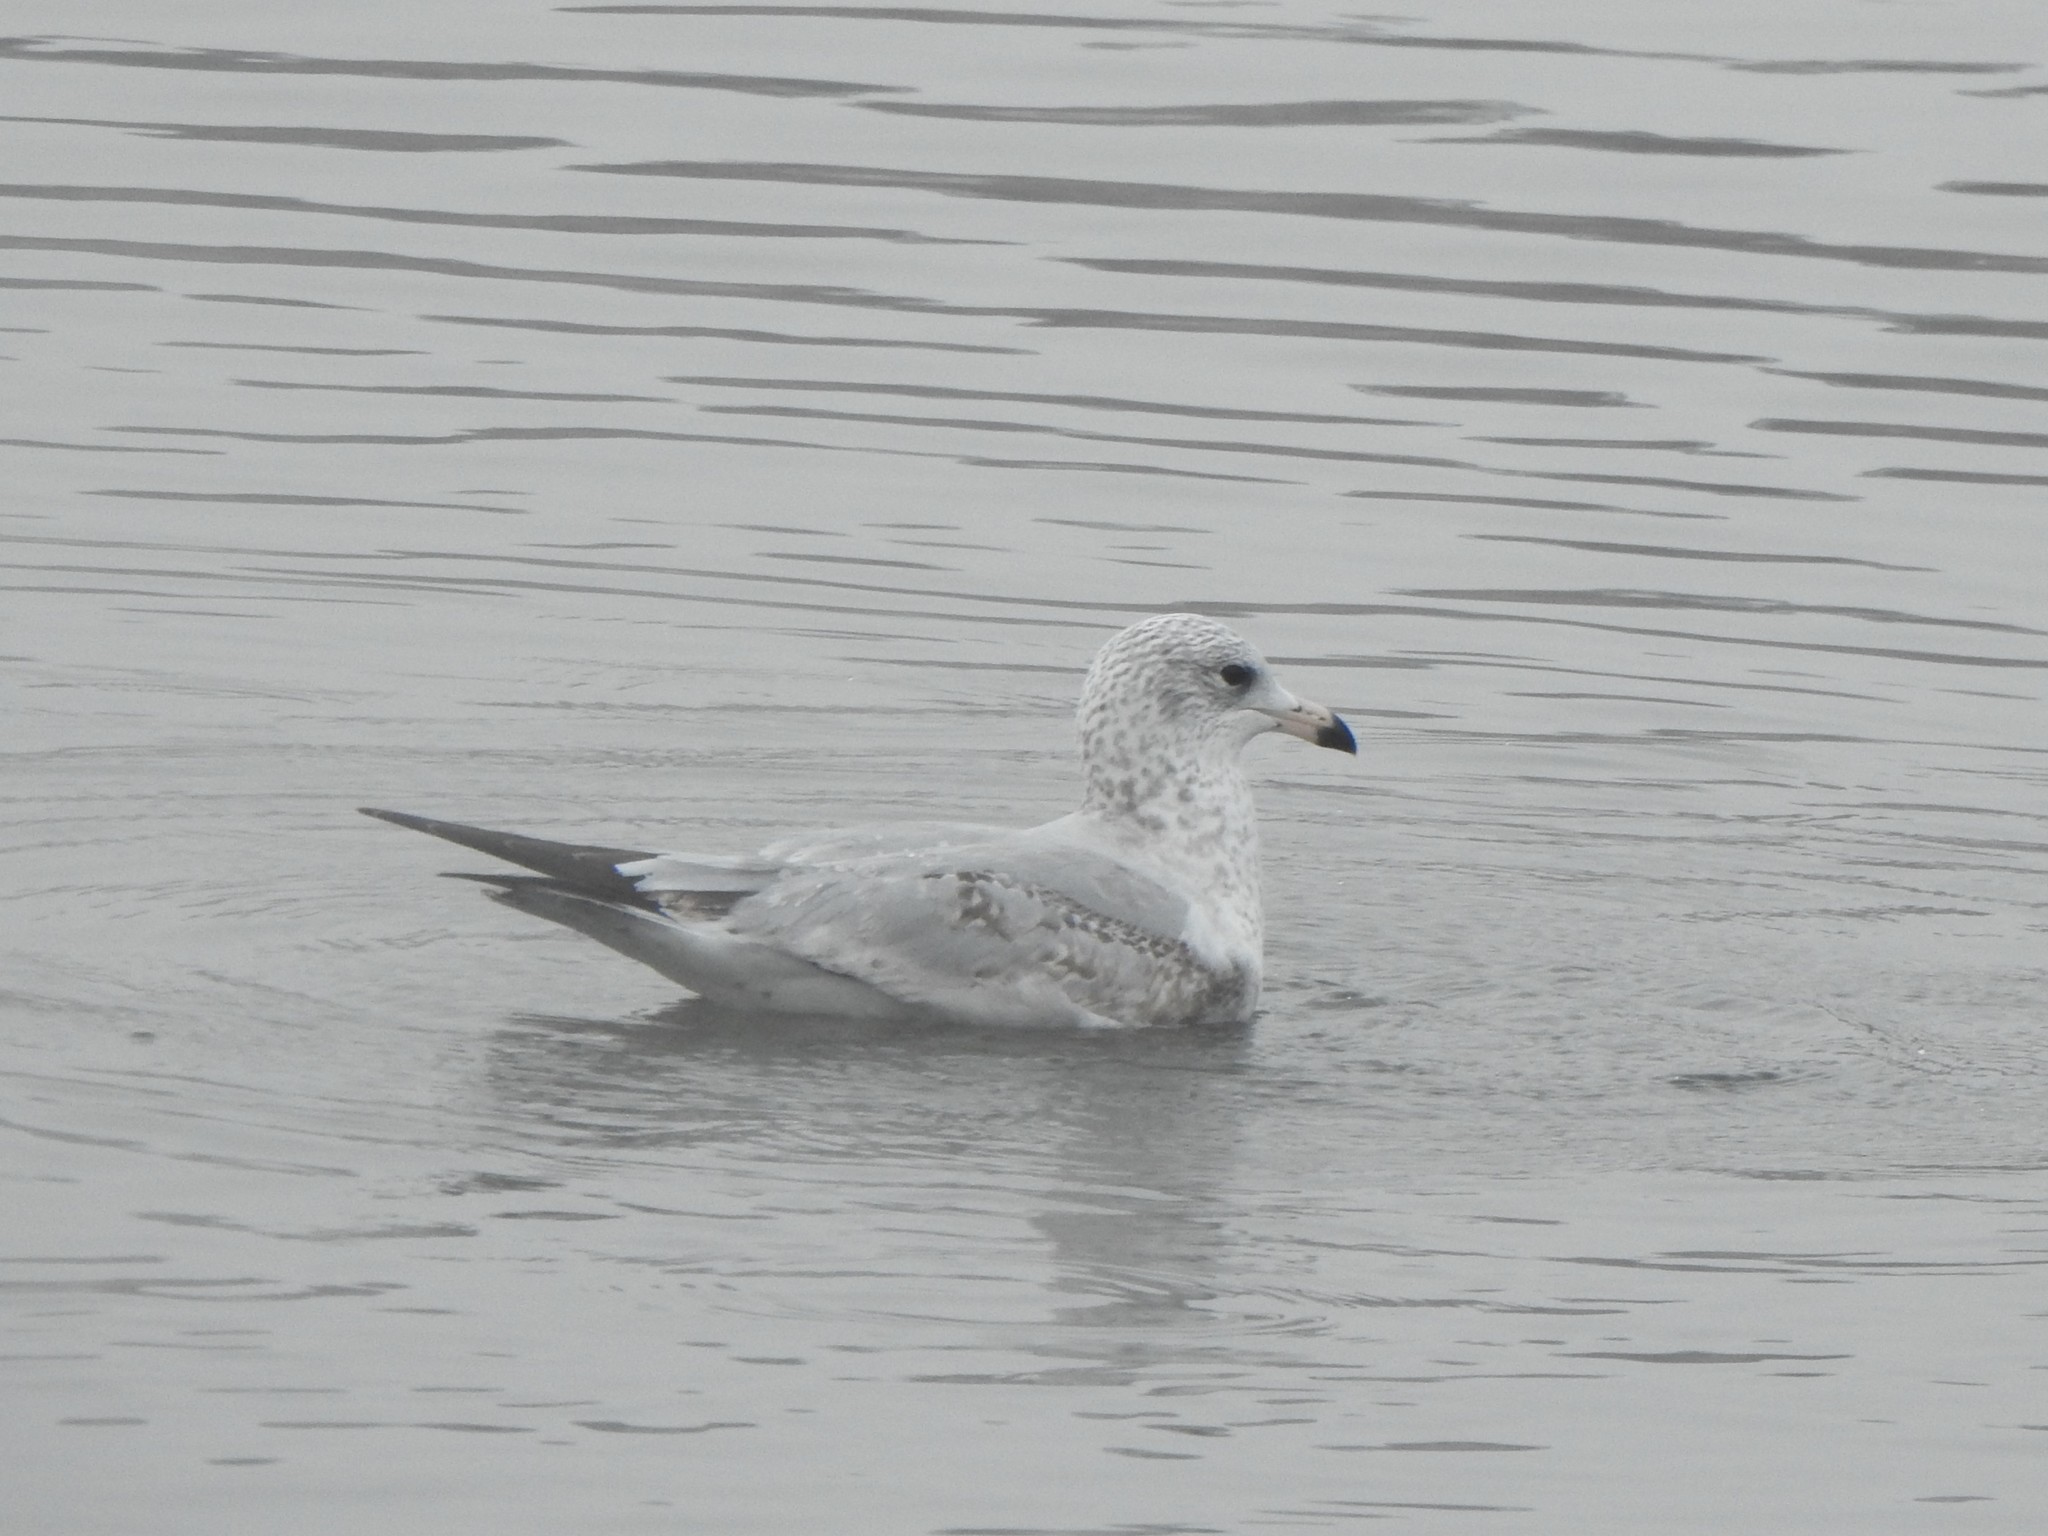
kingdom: Animalia
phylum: Chordata
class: Aves
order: Charadriiformes
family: Laridae
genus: Larus
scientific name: Larus delawarensis
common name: Ring-billed gull
